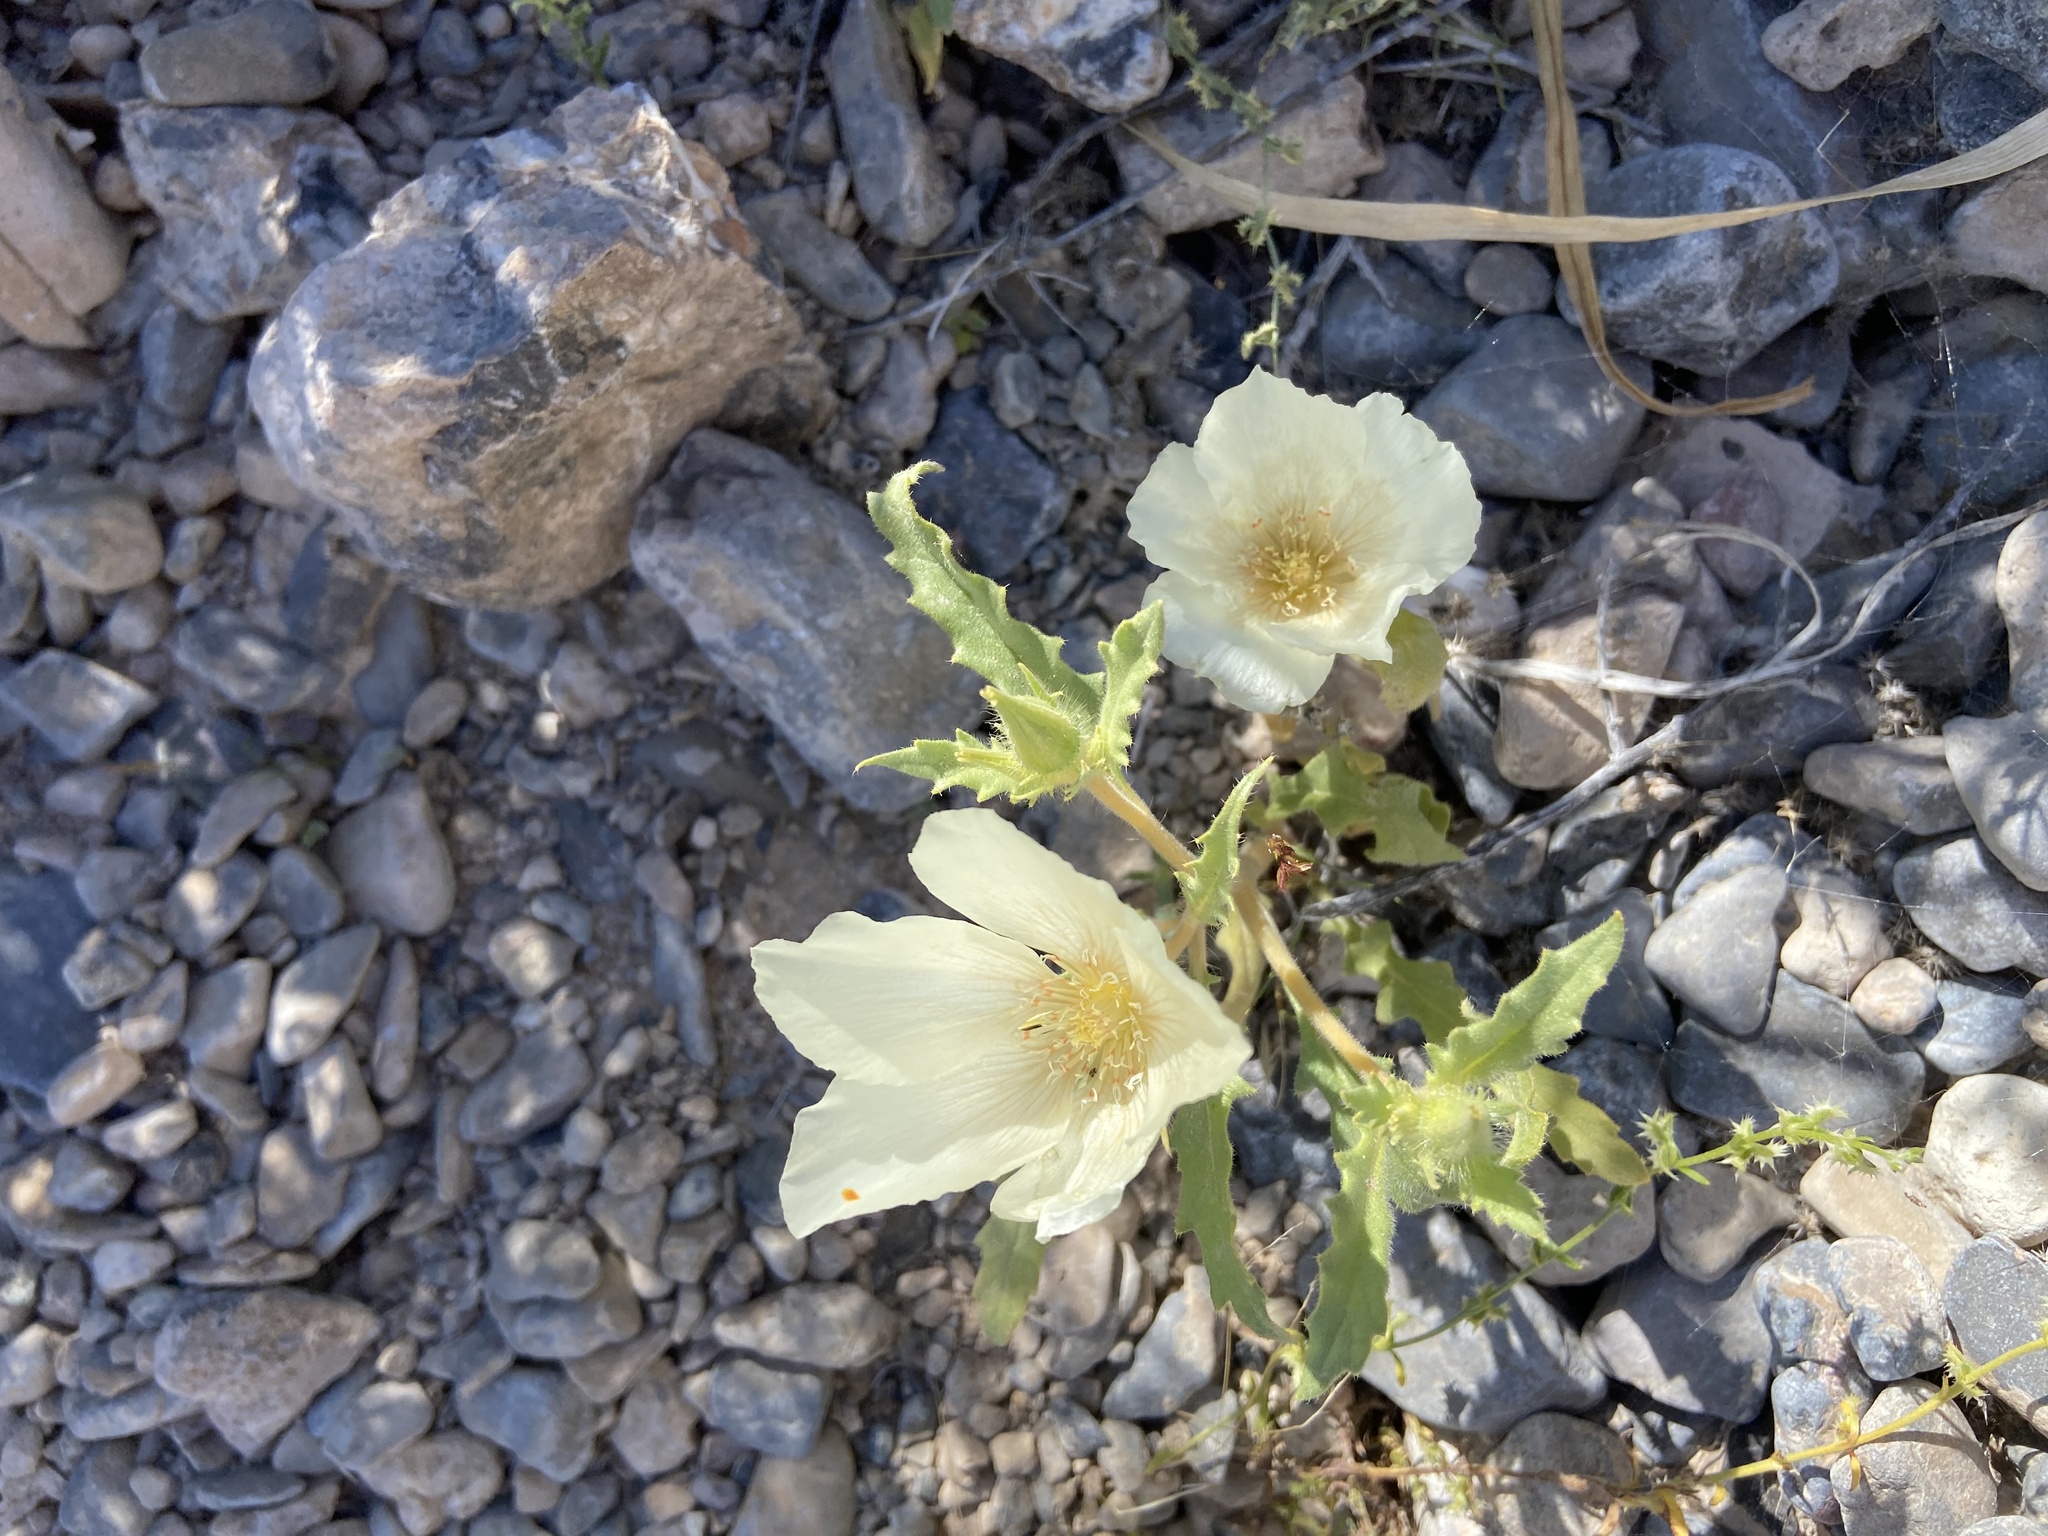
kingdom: Plantae
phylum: Tracheophyta
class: Magnoliopsida
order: Cornales
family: Loasaceae
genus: Mentzelia
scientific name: Mentzelia tricuspis
